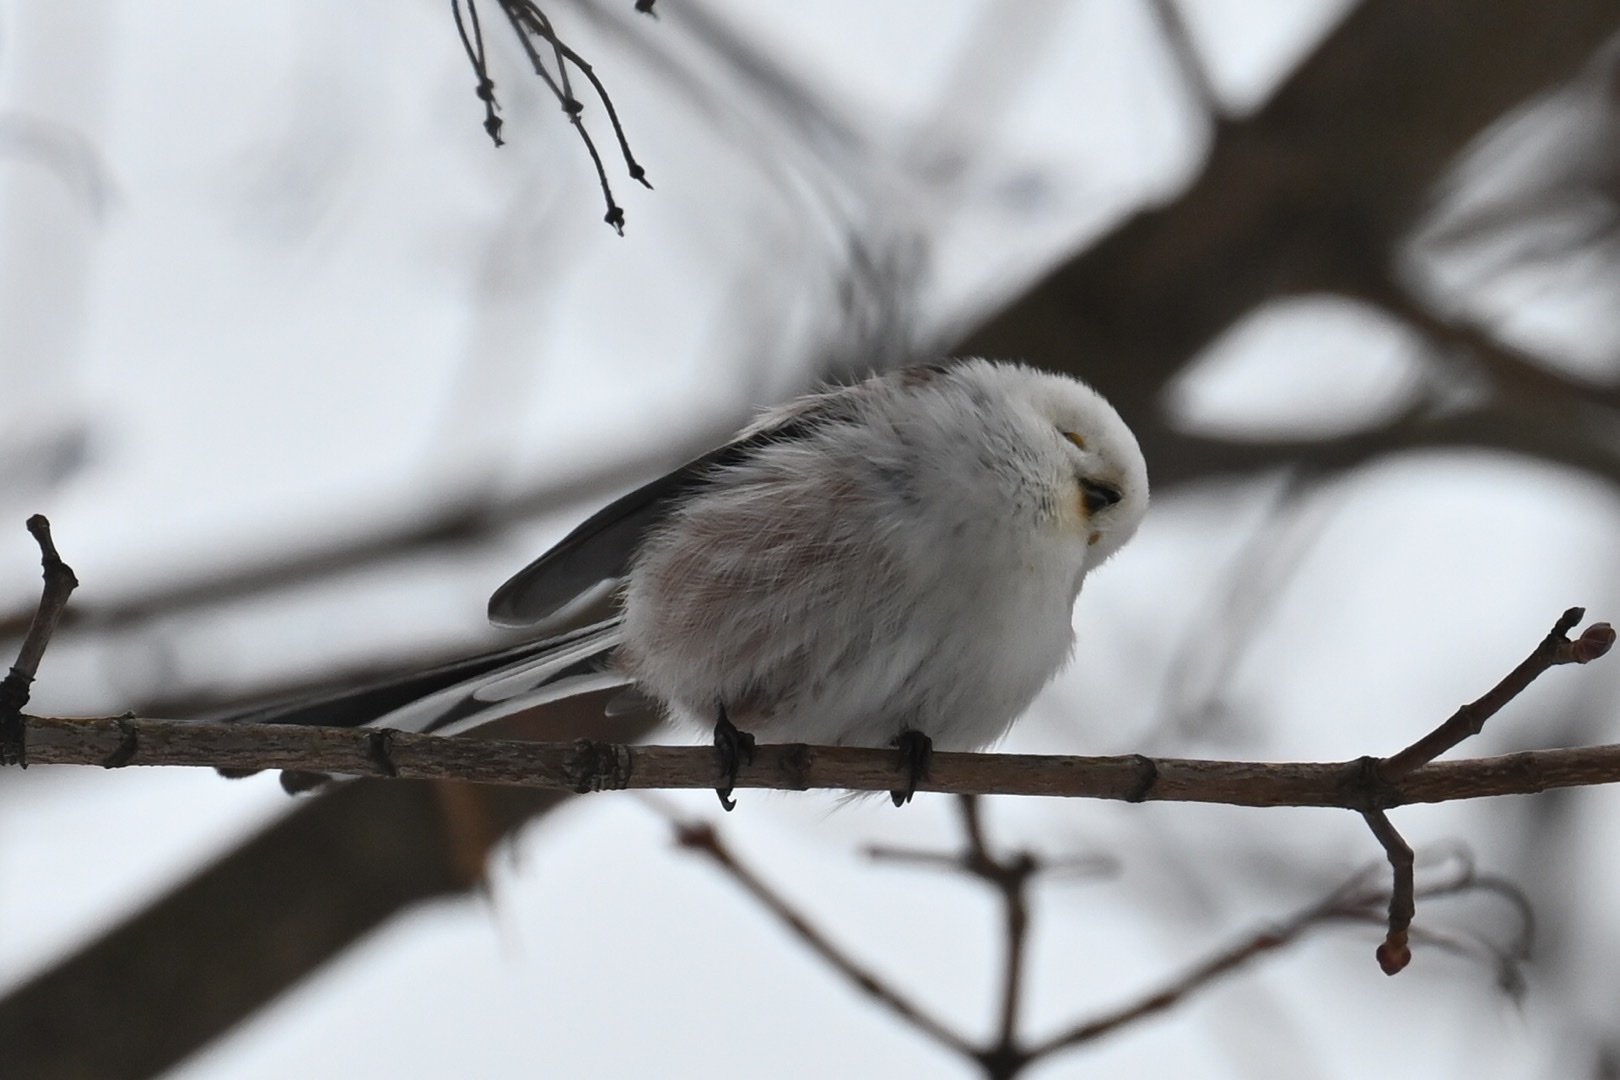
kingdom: Animalia
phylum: Chordata
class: Aves
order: Passeriformes
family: Aegithalidae
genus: Aegithalos
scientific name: Aegithalos caudatus
